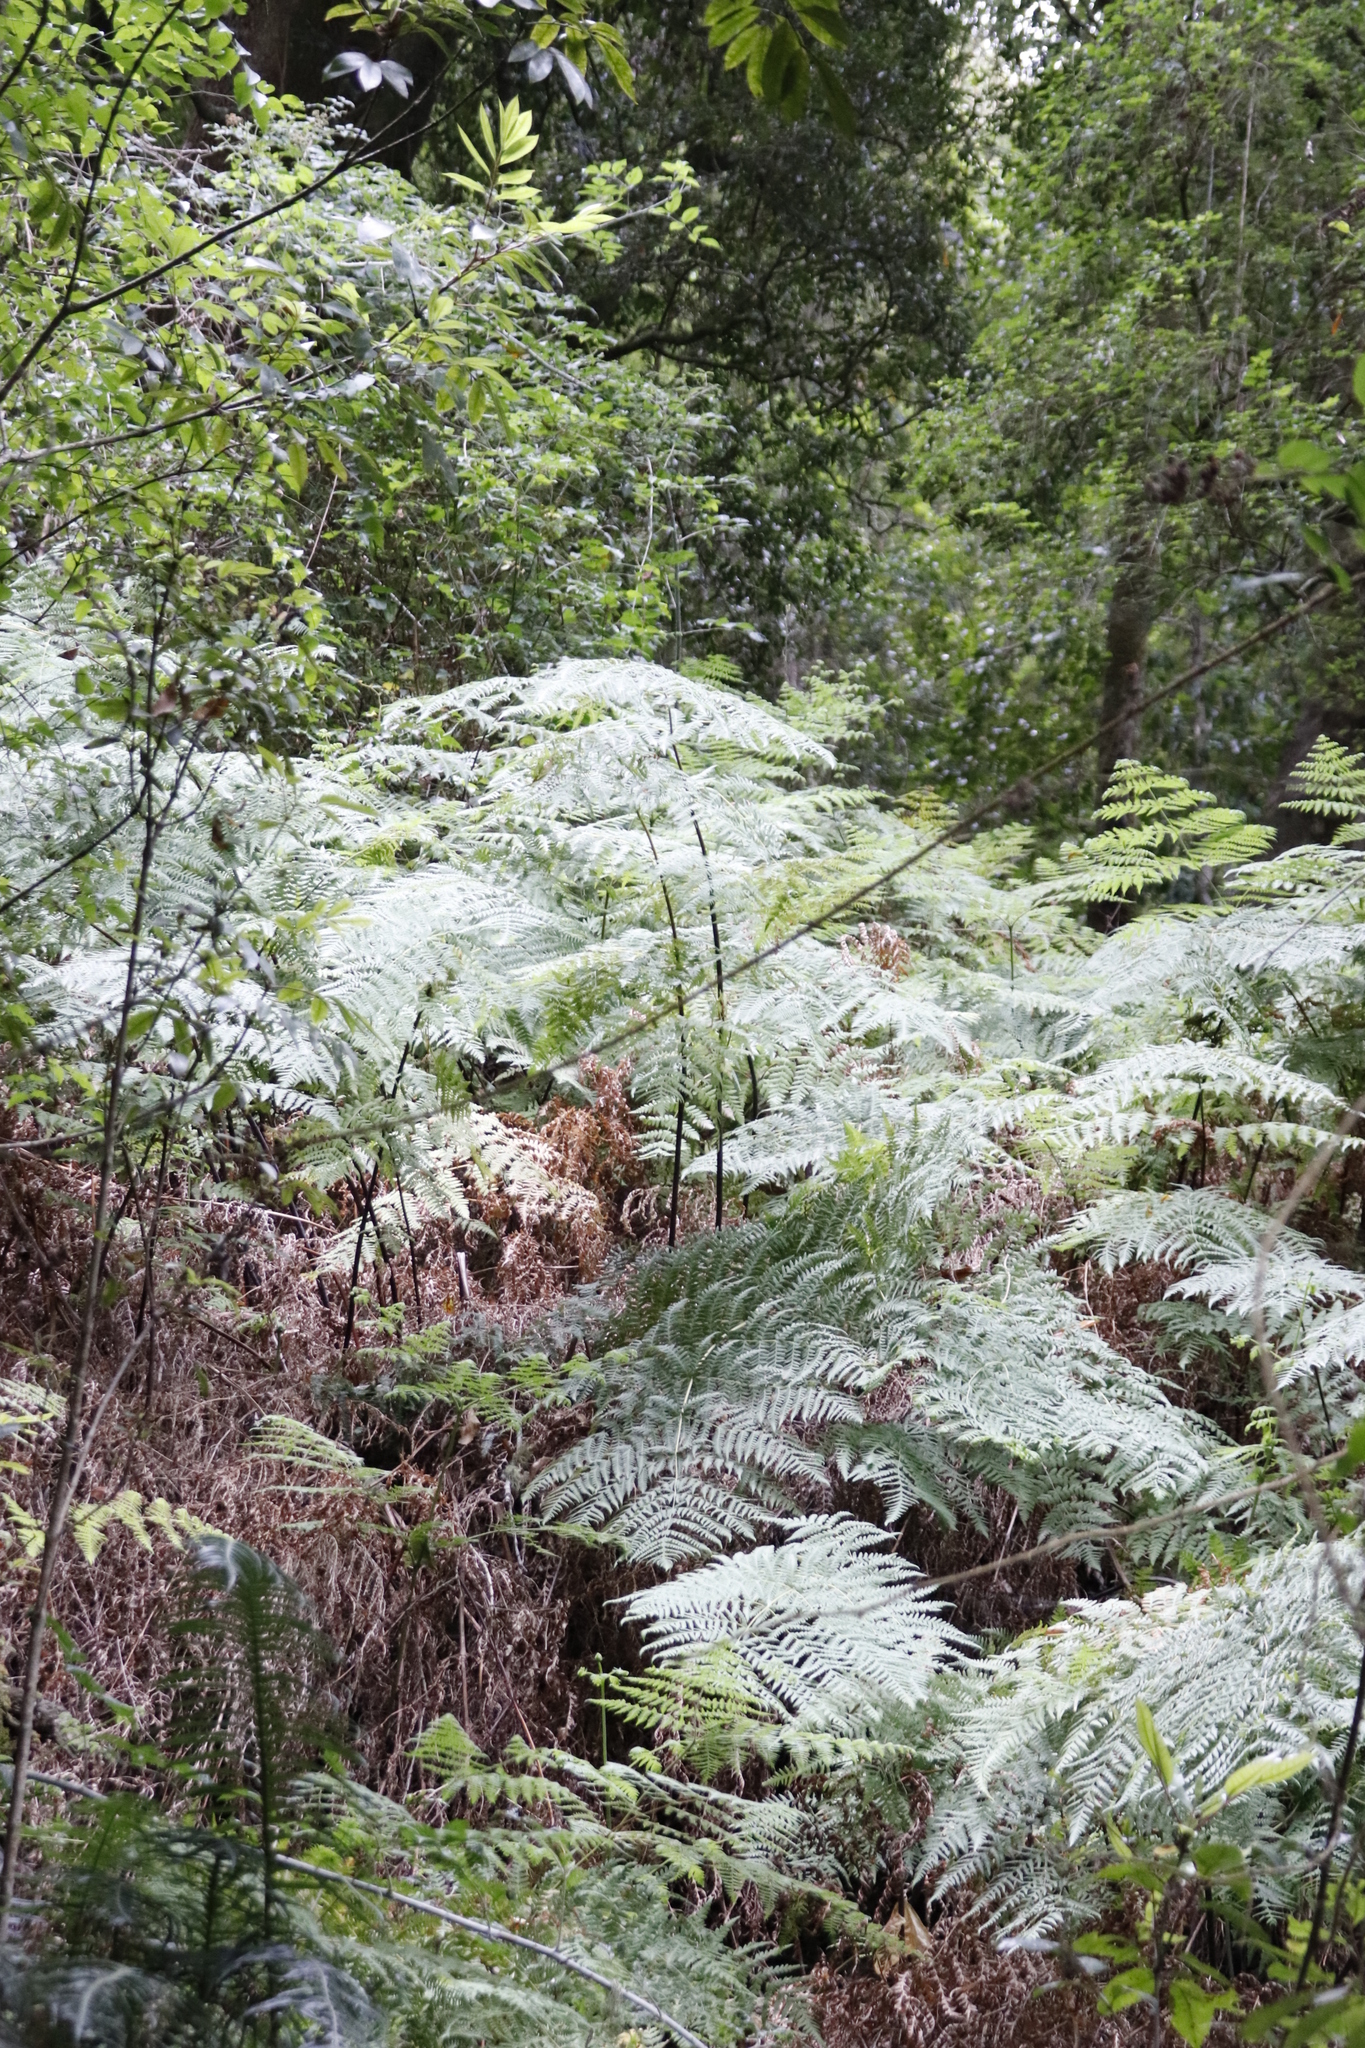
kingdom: Plantae
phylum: Tracheophyta
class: Polypodiopsida
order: Polypodiales
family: Dennstaedtiaceae
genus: Pteridium
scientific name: Pteridium aquilinum
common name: Bracken
